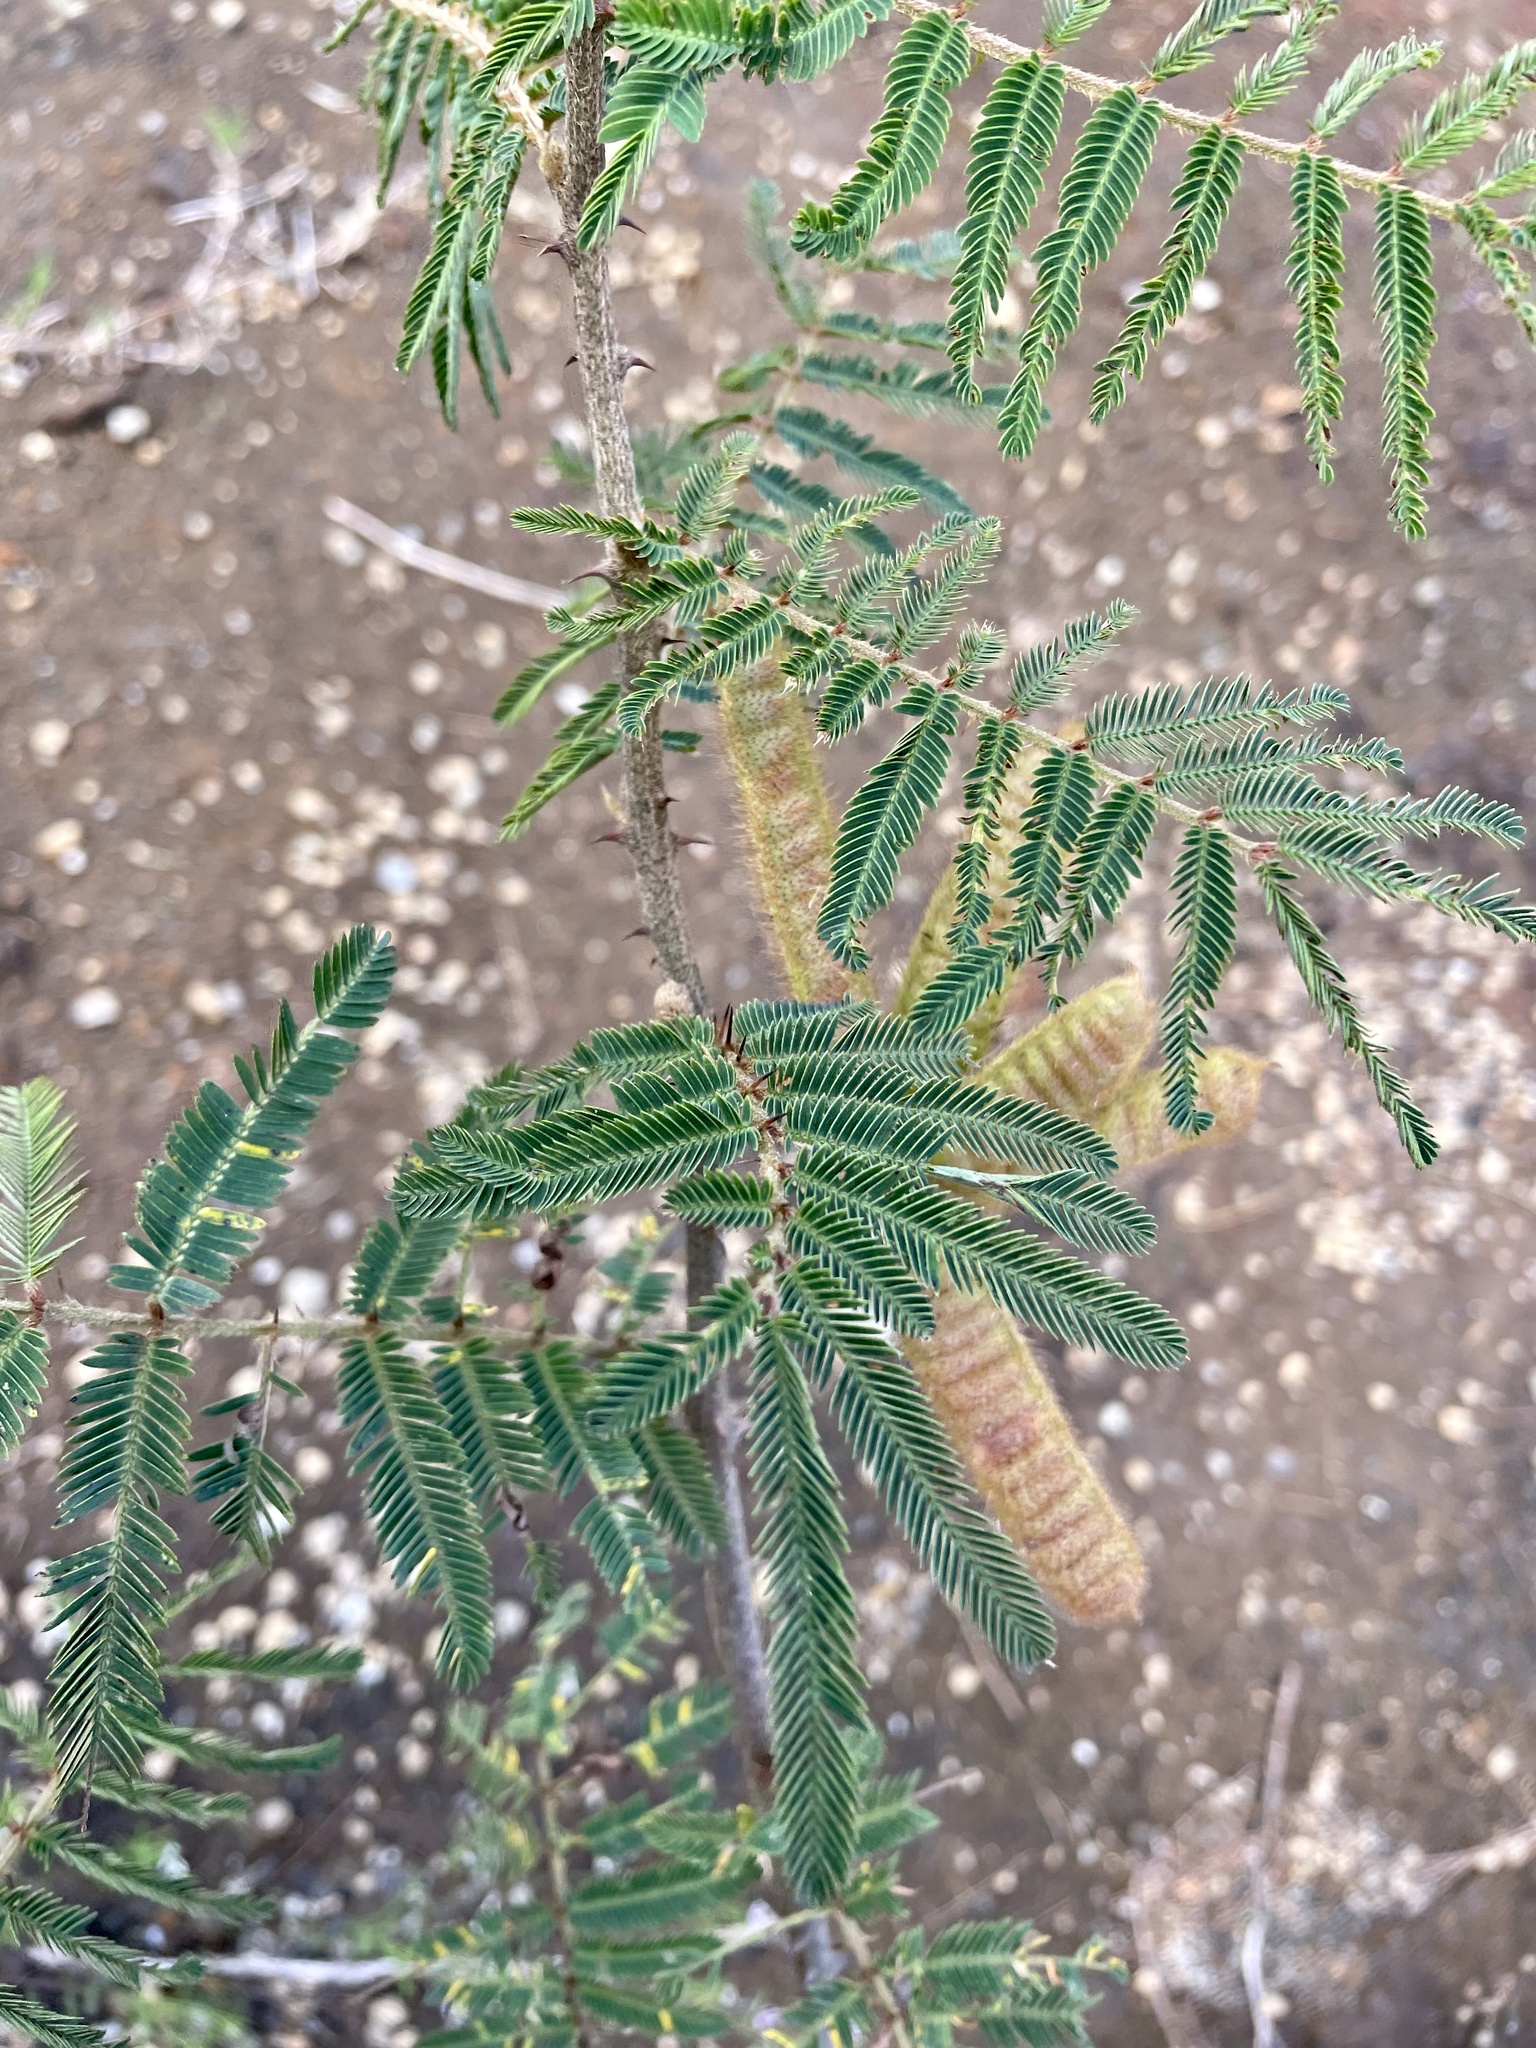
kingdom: Plantae
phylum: Tracheophyta
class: Magnoliopsida
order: Fabales
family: Fabaceae
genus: Mimosa
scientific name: Mimosa pigra
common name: Black mimosa
